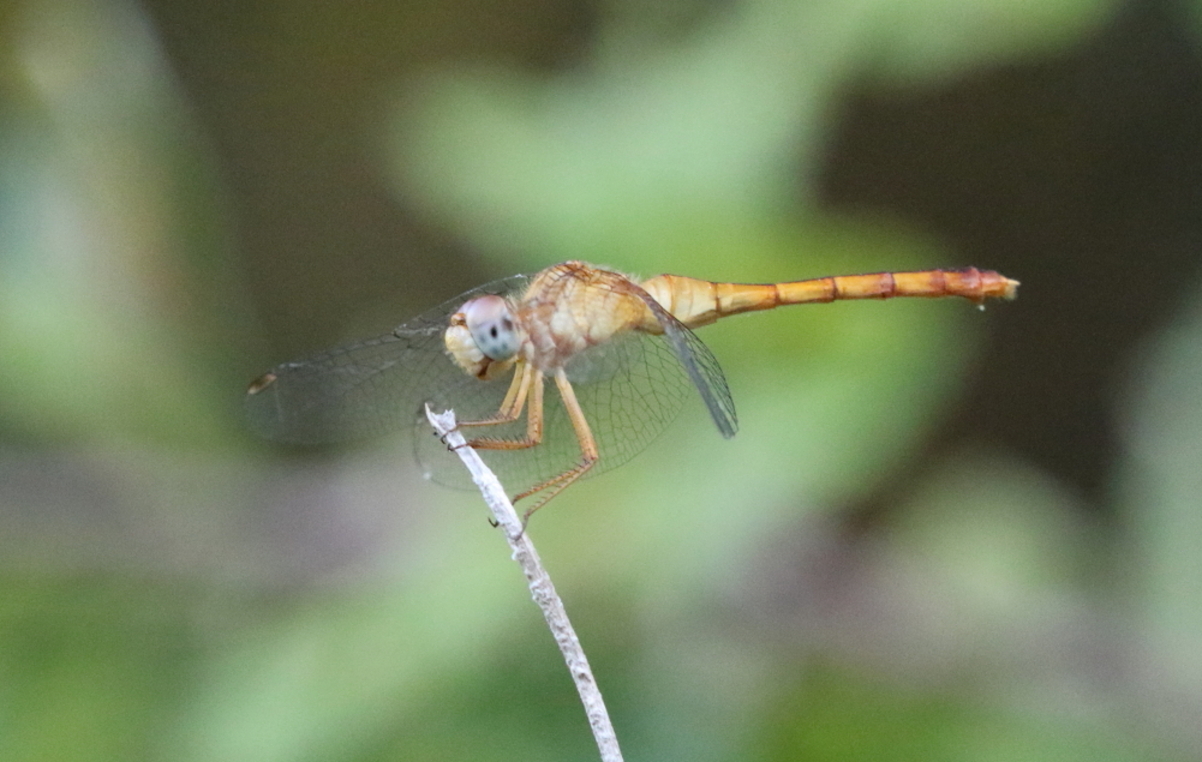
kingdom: Animalia
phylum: Arthropoda
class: Insecta
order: Odonata
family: Libellulidae
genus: Sympetrum
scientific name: Sympetrum vicinum
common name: Autumn meadowhawk
